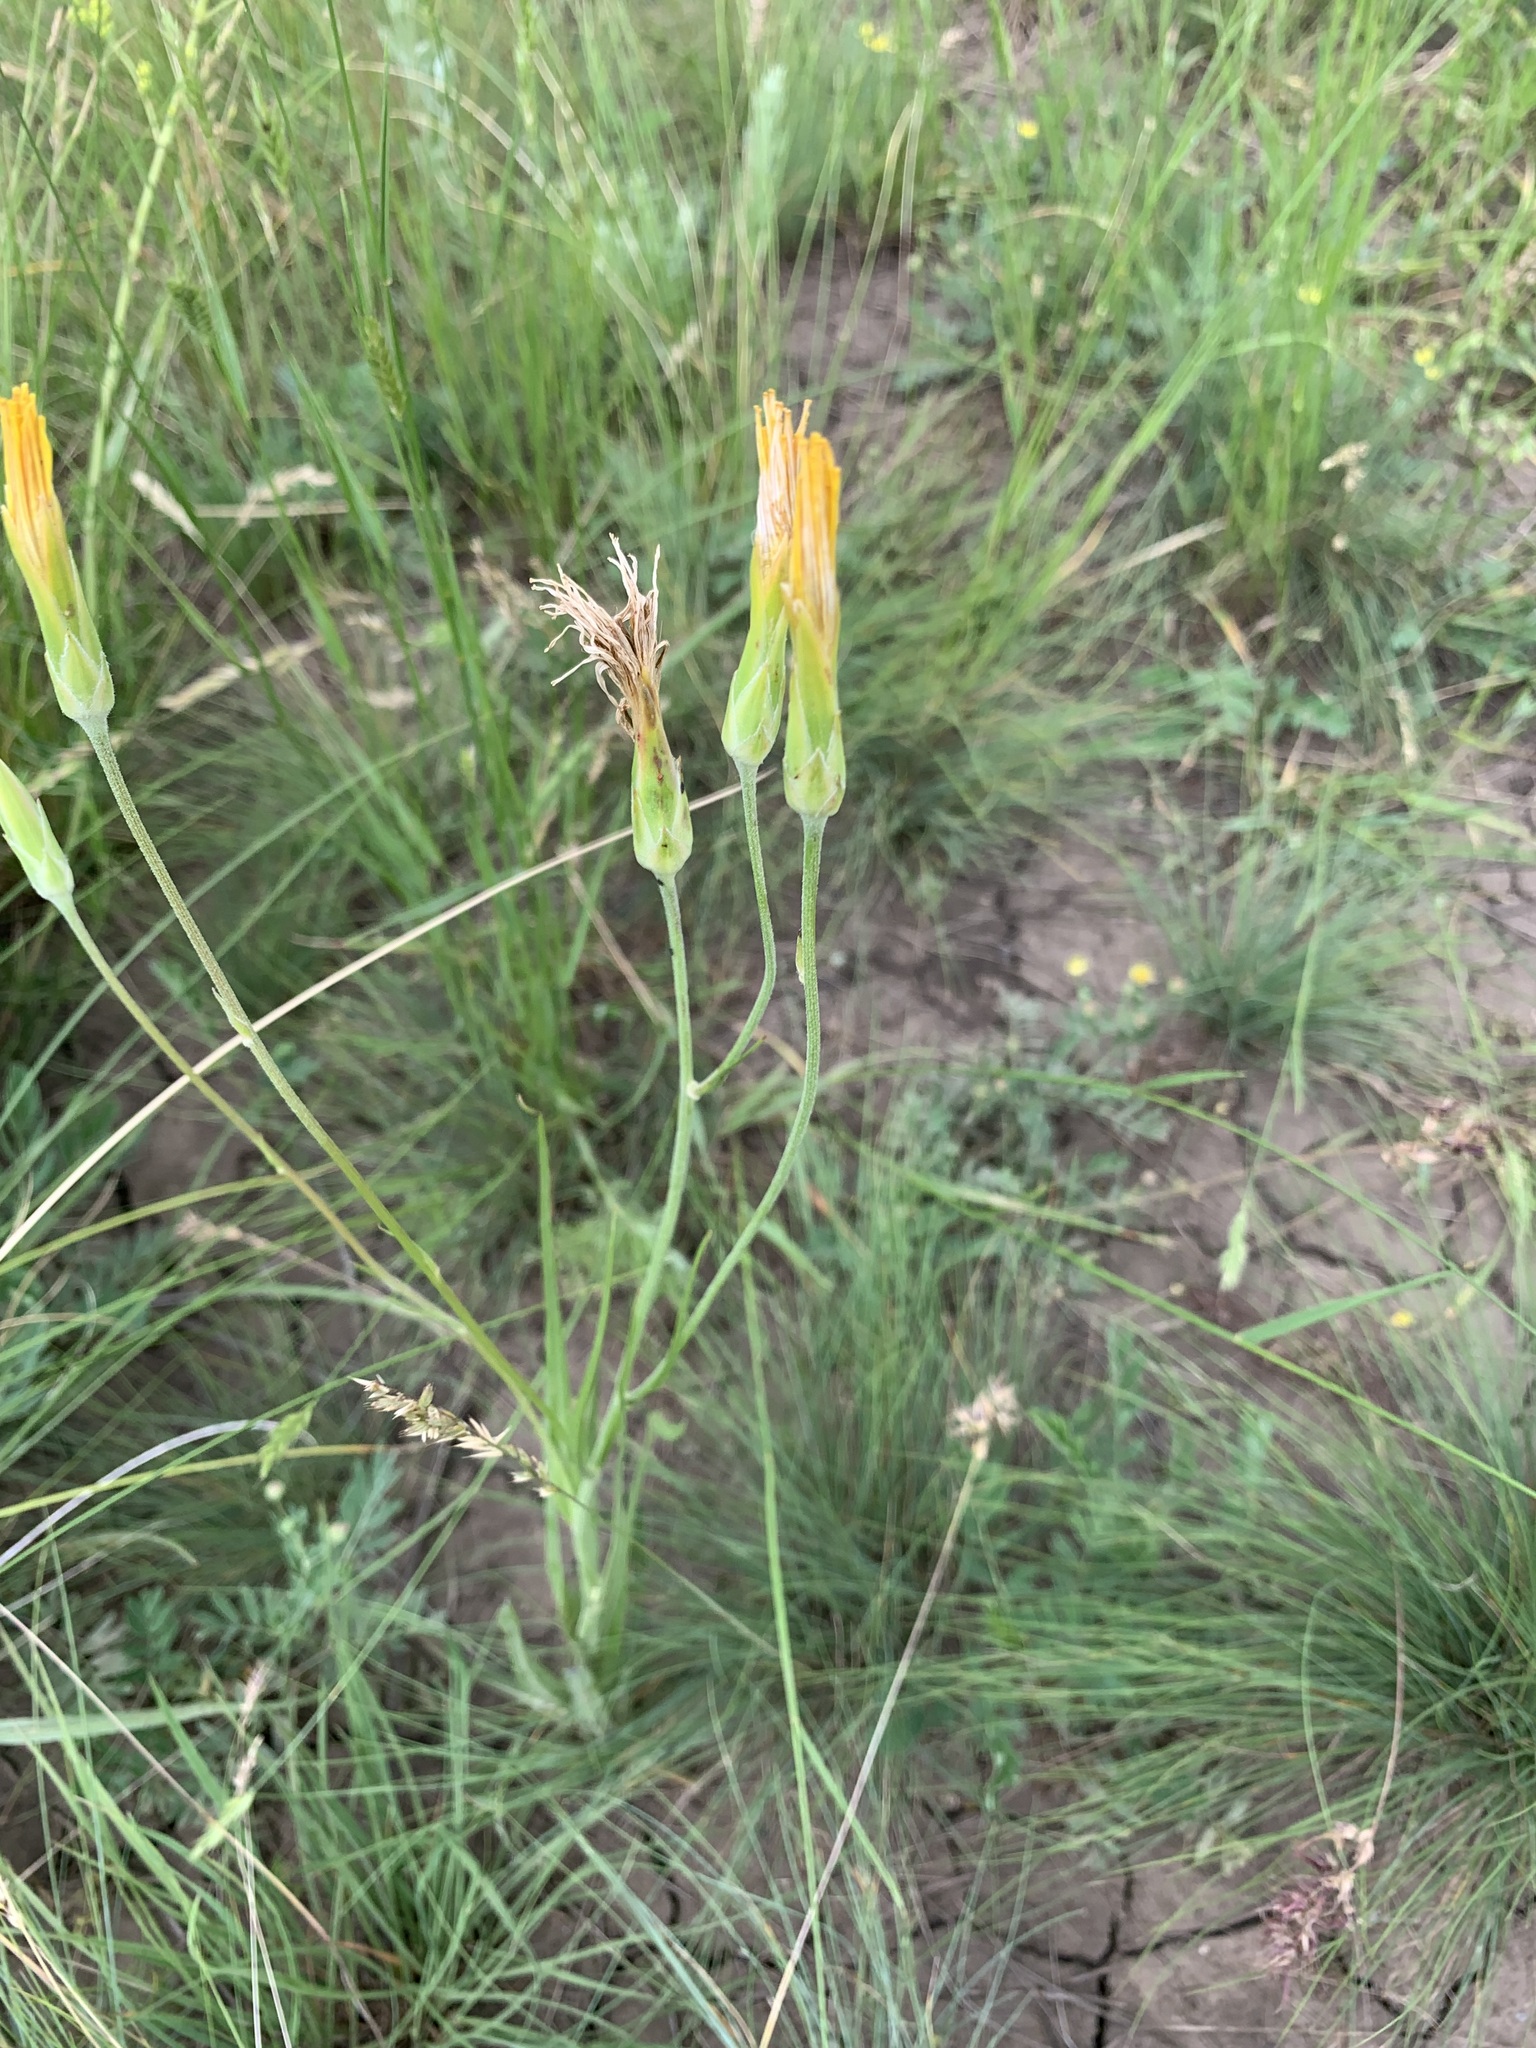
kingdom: Plantae
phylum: Tracheophyta
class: Magnoliopsida
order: Asterales
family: Asteraceae
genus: Pseudopodospermum
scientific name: Pseudopodospermum strictum
